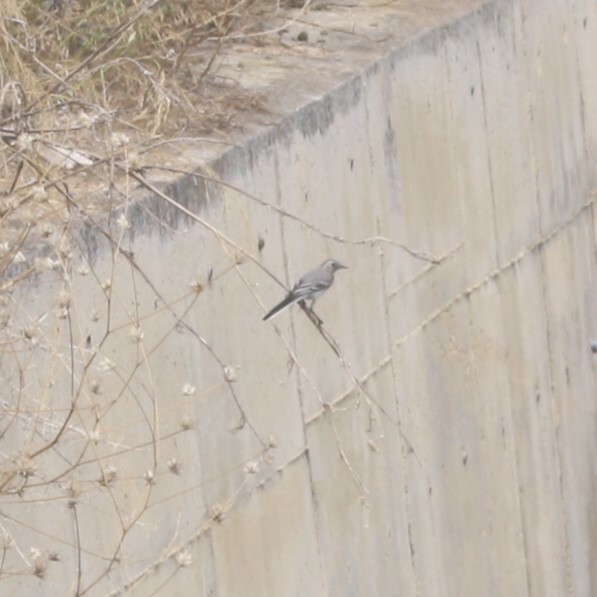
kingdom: Animalia
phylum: Chordata
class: Aves
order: Passeriformes
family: Motacillidae
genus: Motacilla
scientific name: Motacilla alba
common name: White wagtail
